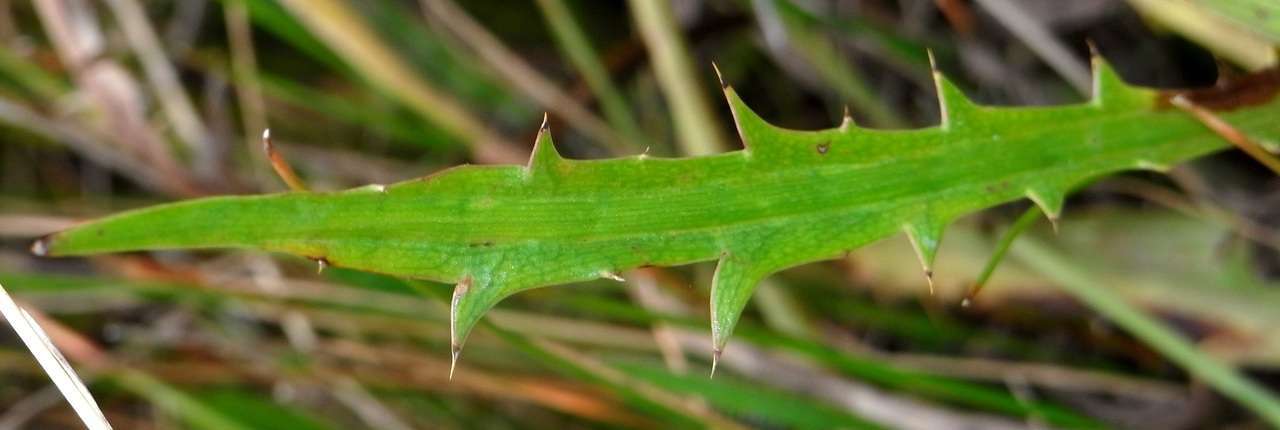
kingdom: Plantae
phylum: Tracheophyta
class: Magnoliopsida
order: Apiales
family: Apiaceae
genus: Eryngium
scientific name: Eryngium vesiculosum
